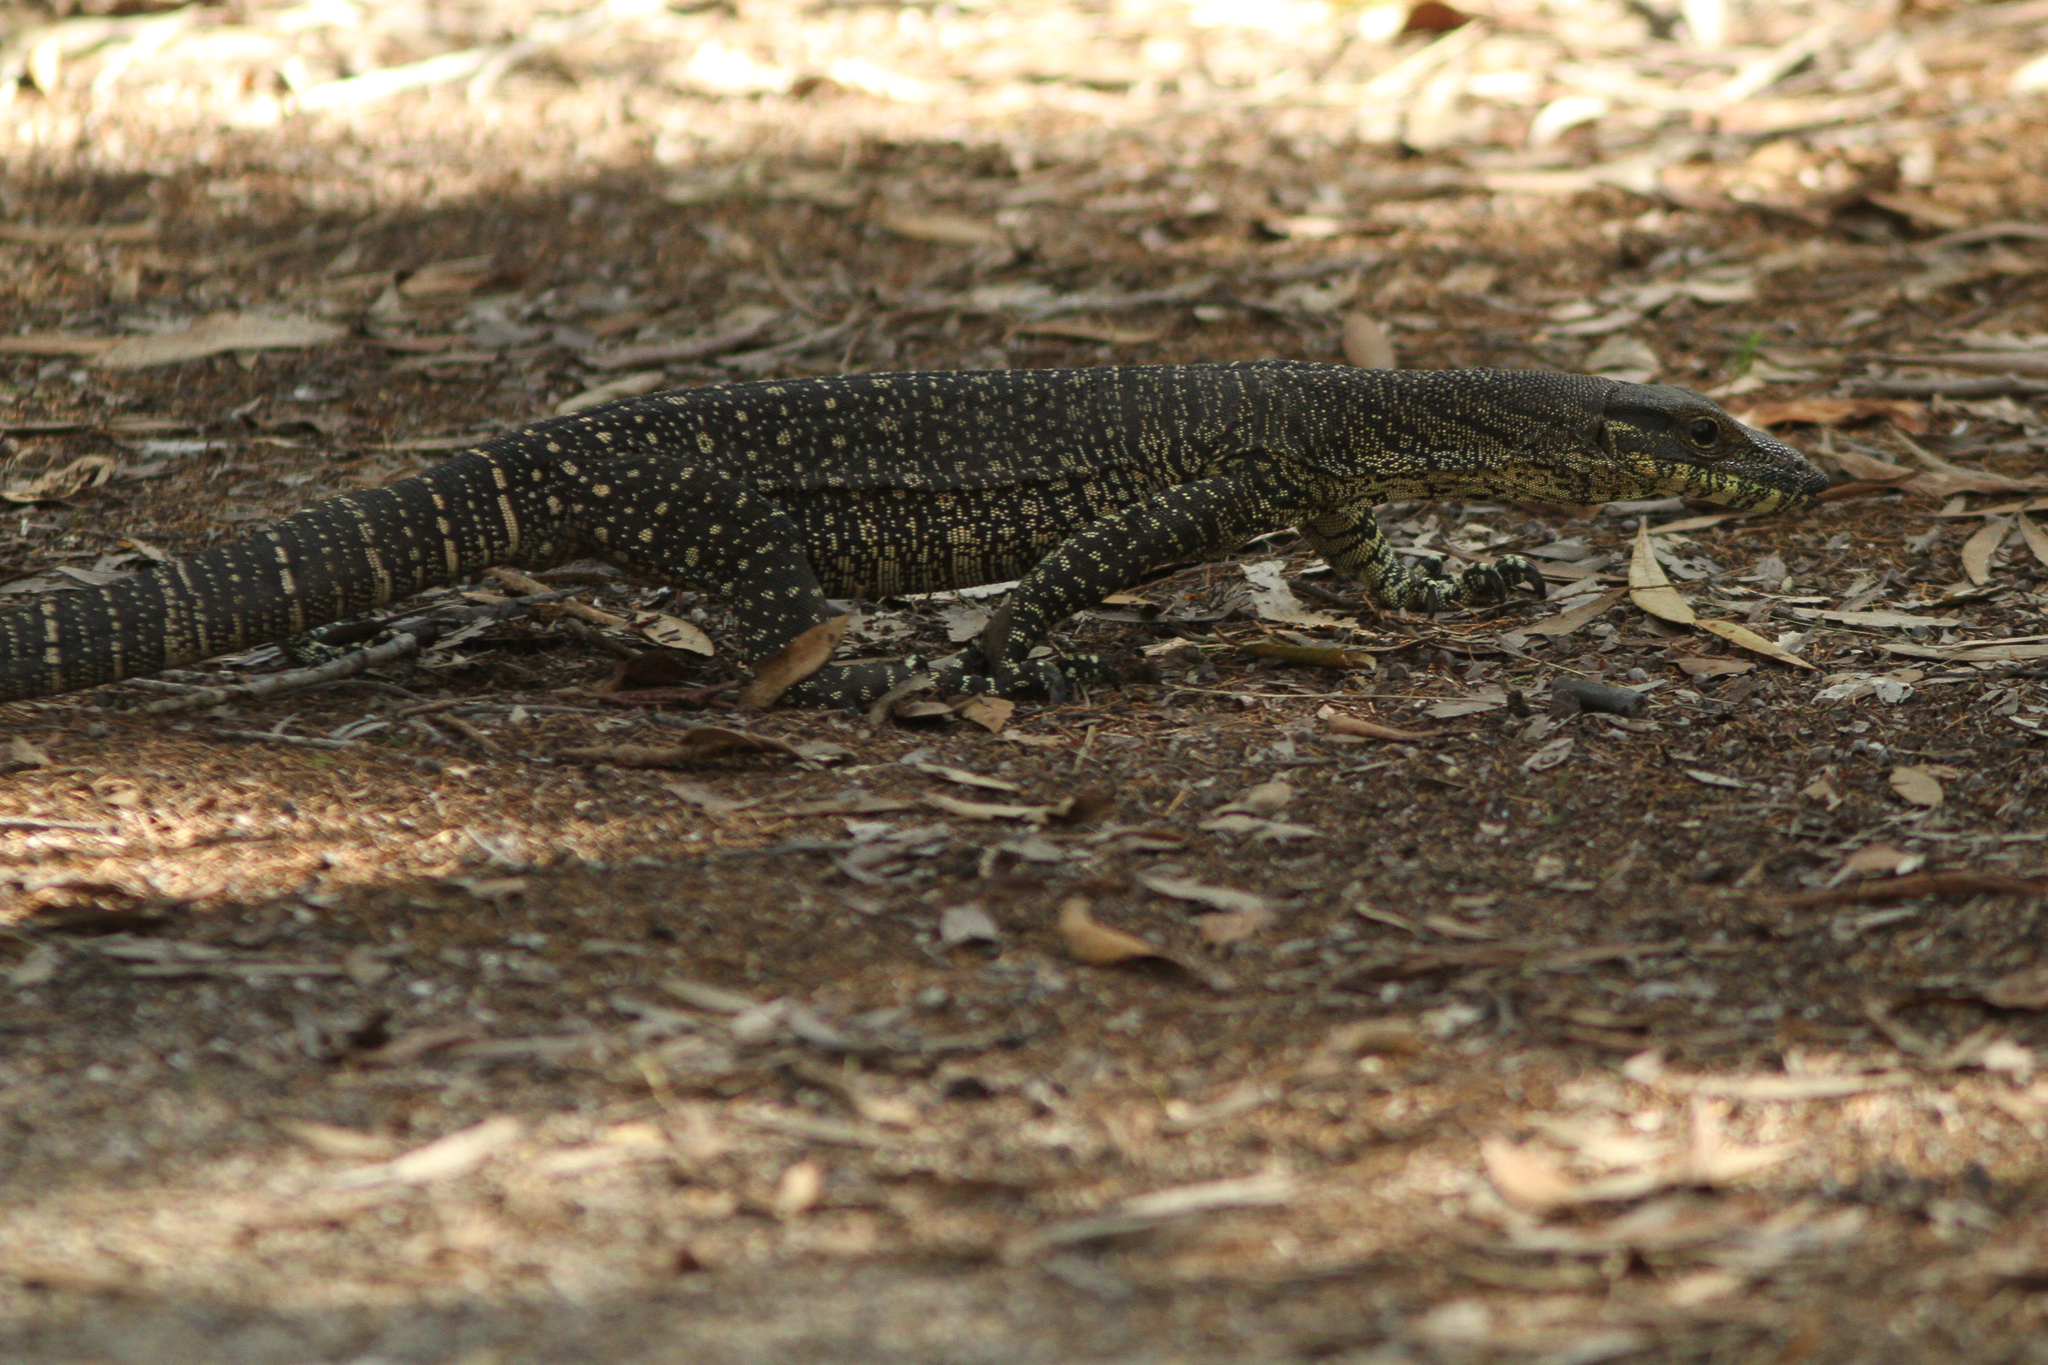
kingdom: Animalia
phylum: Chordata
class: Squamata
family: Varanidae
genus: Varanus
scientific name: Varanus varius
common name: Lace monitor
